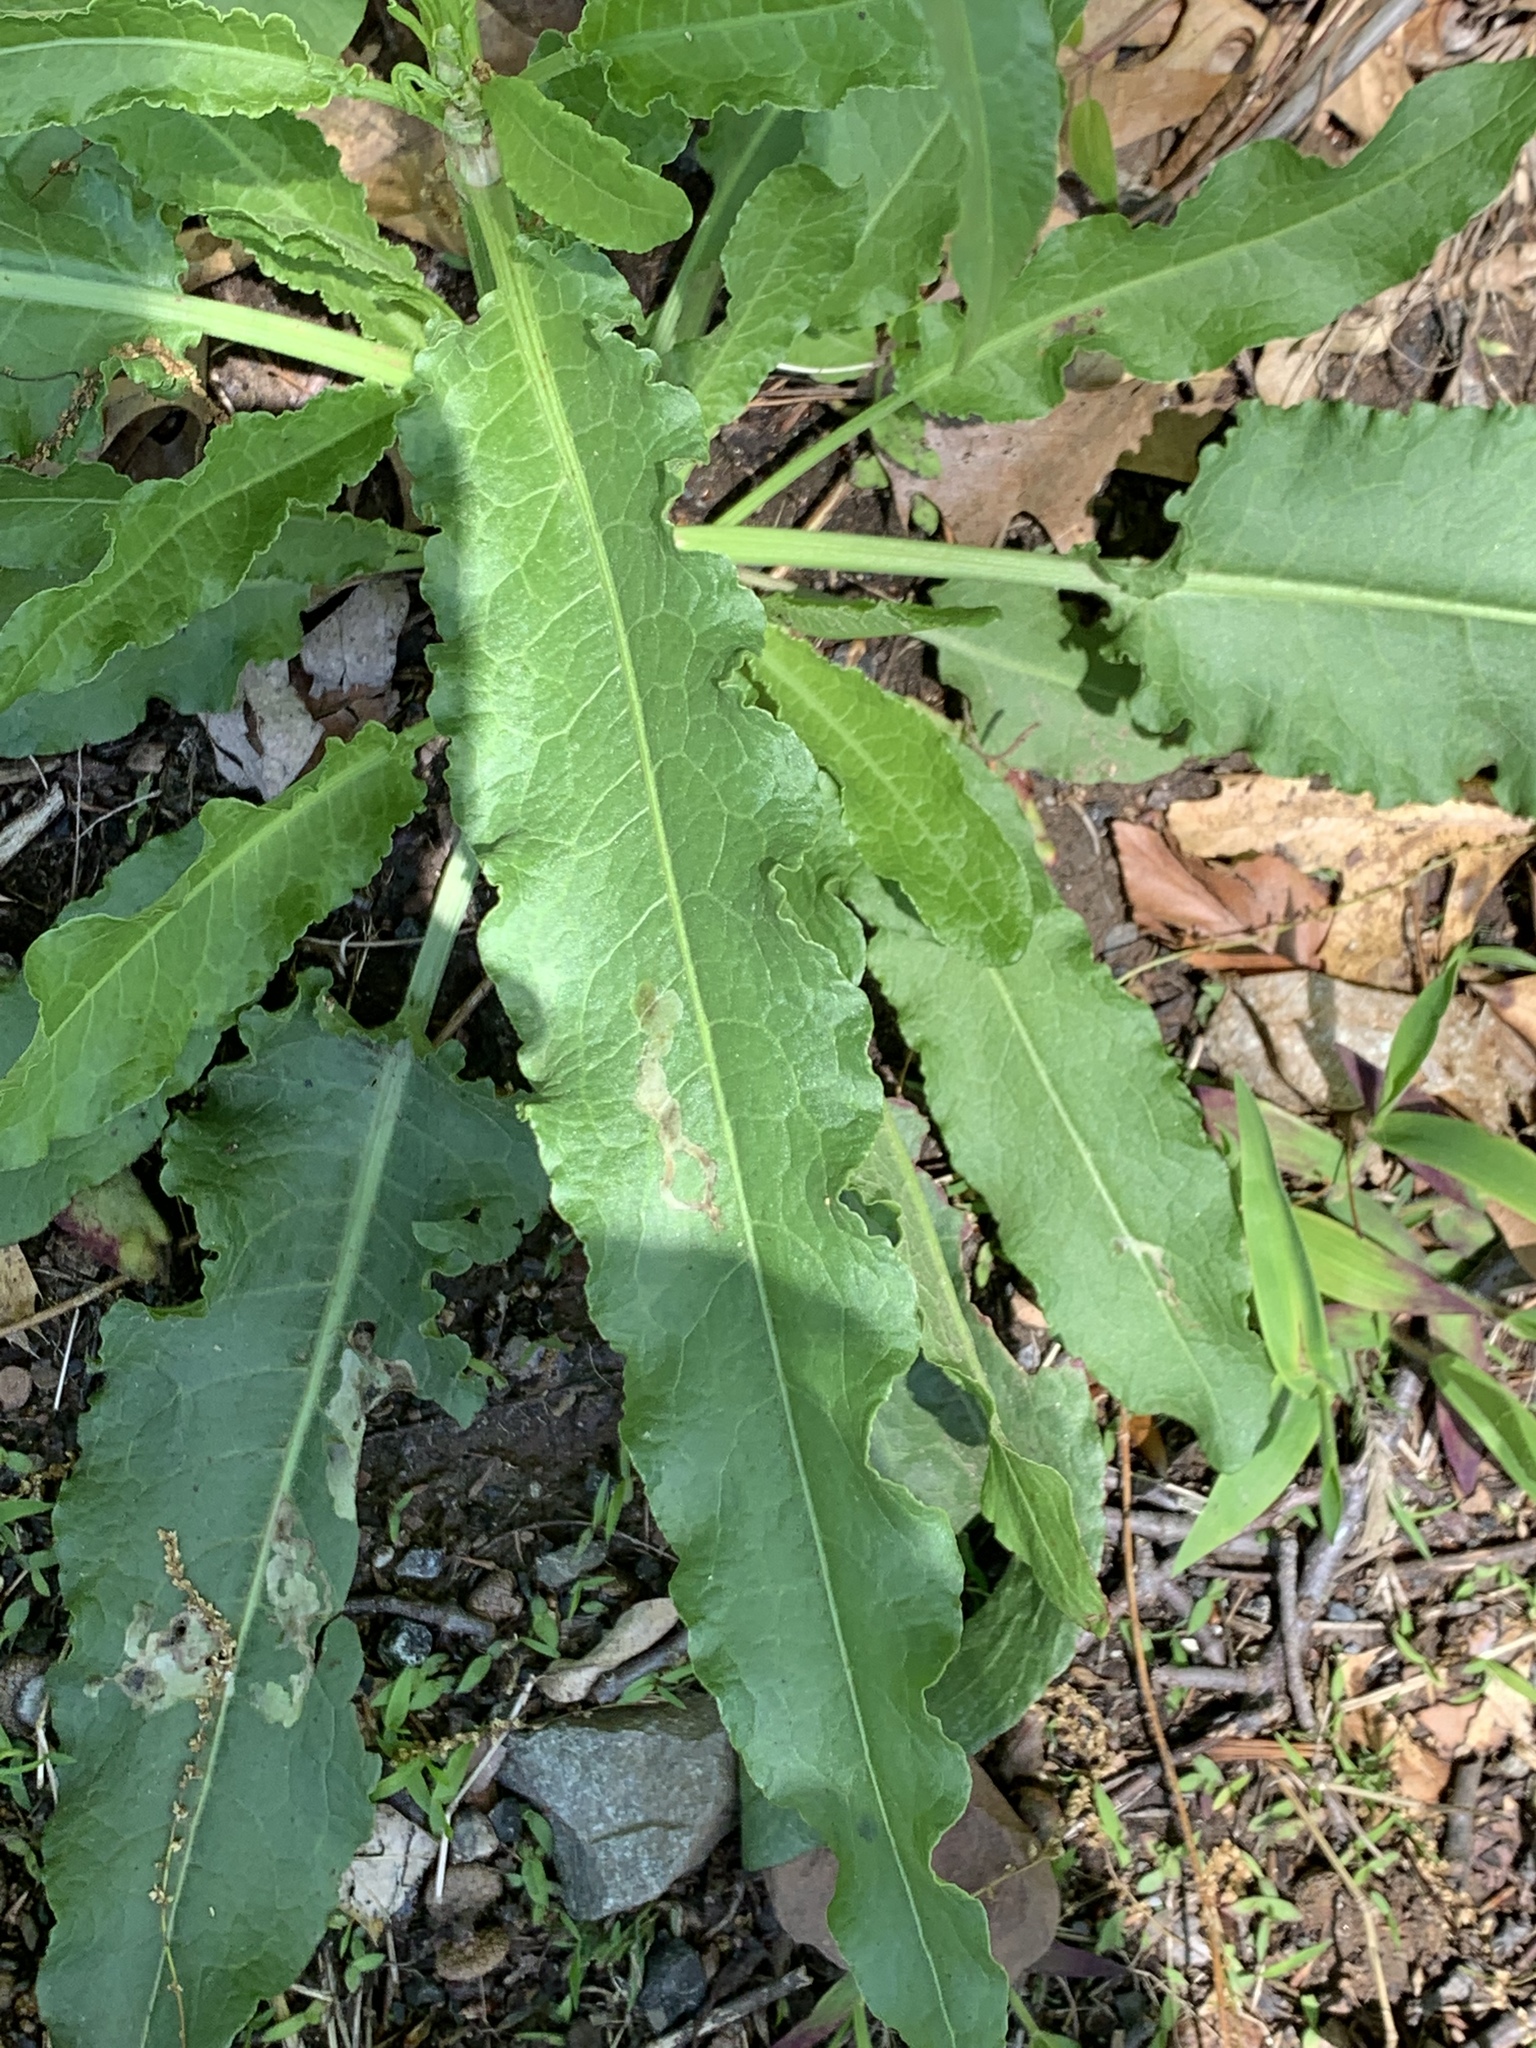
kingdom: Plantae
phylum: Tracheophyta
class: Magnoliopsida
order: Caryophyllales
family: Polygonaceae
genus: Rumex
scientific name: Rumex crispus
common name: Curled dock
